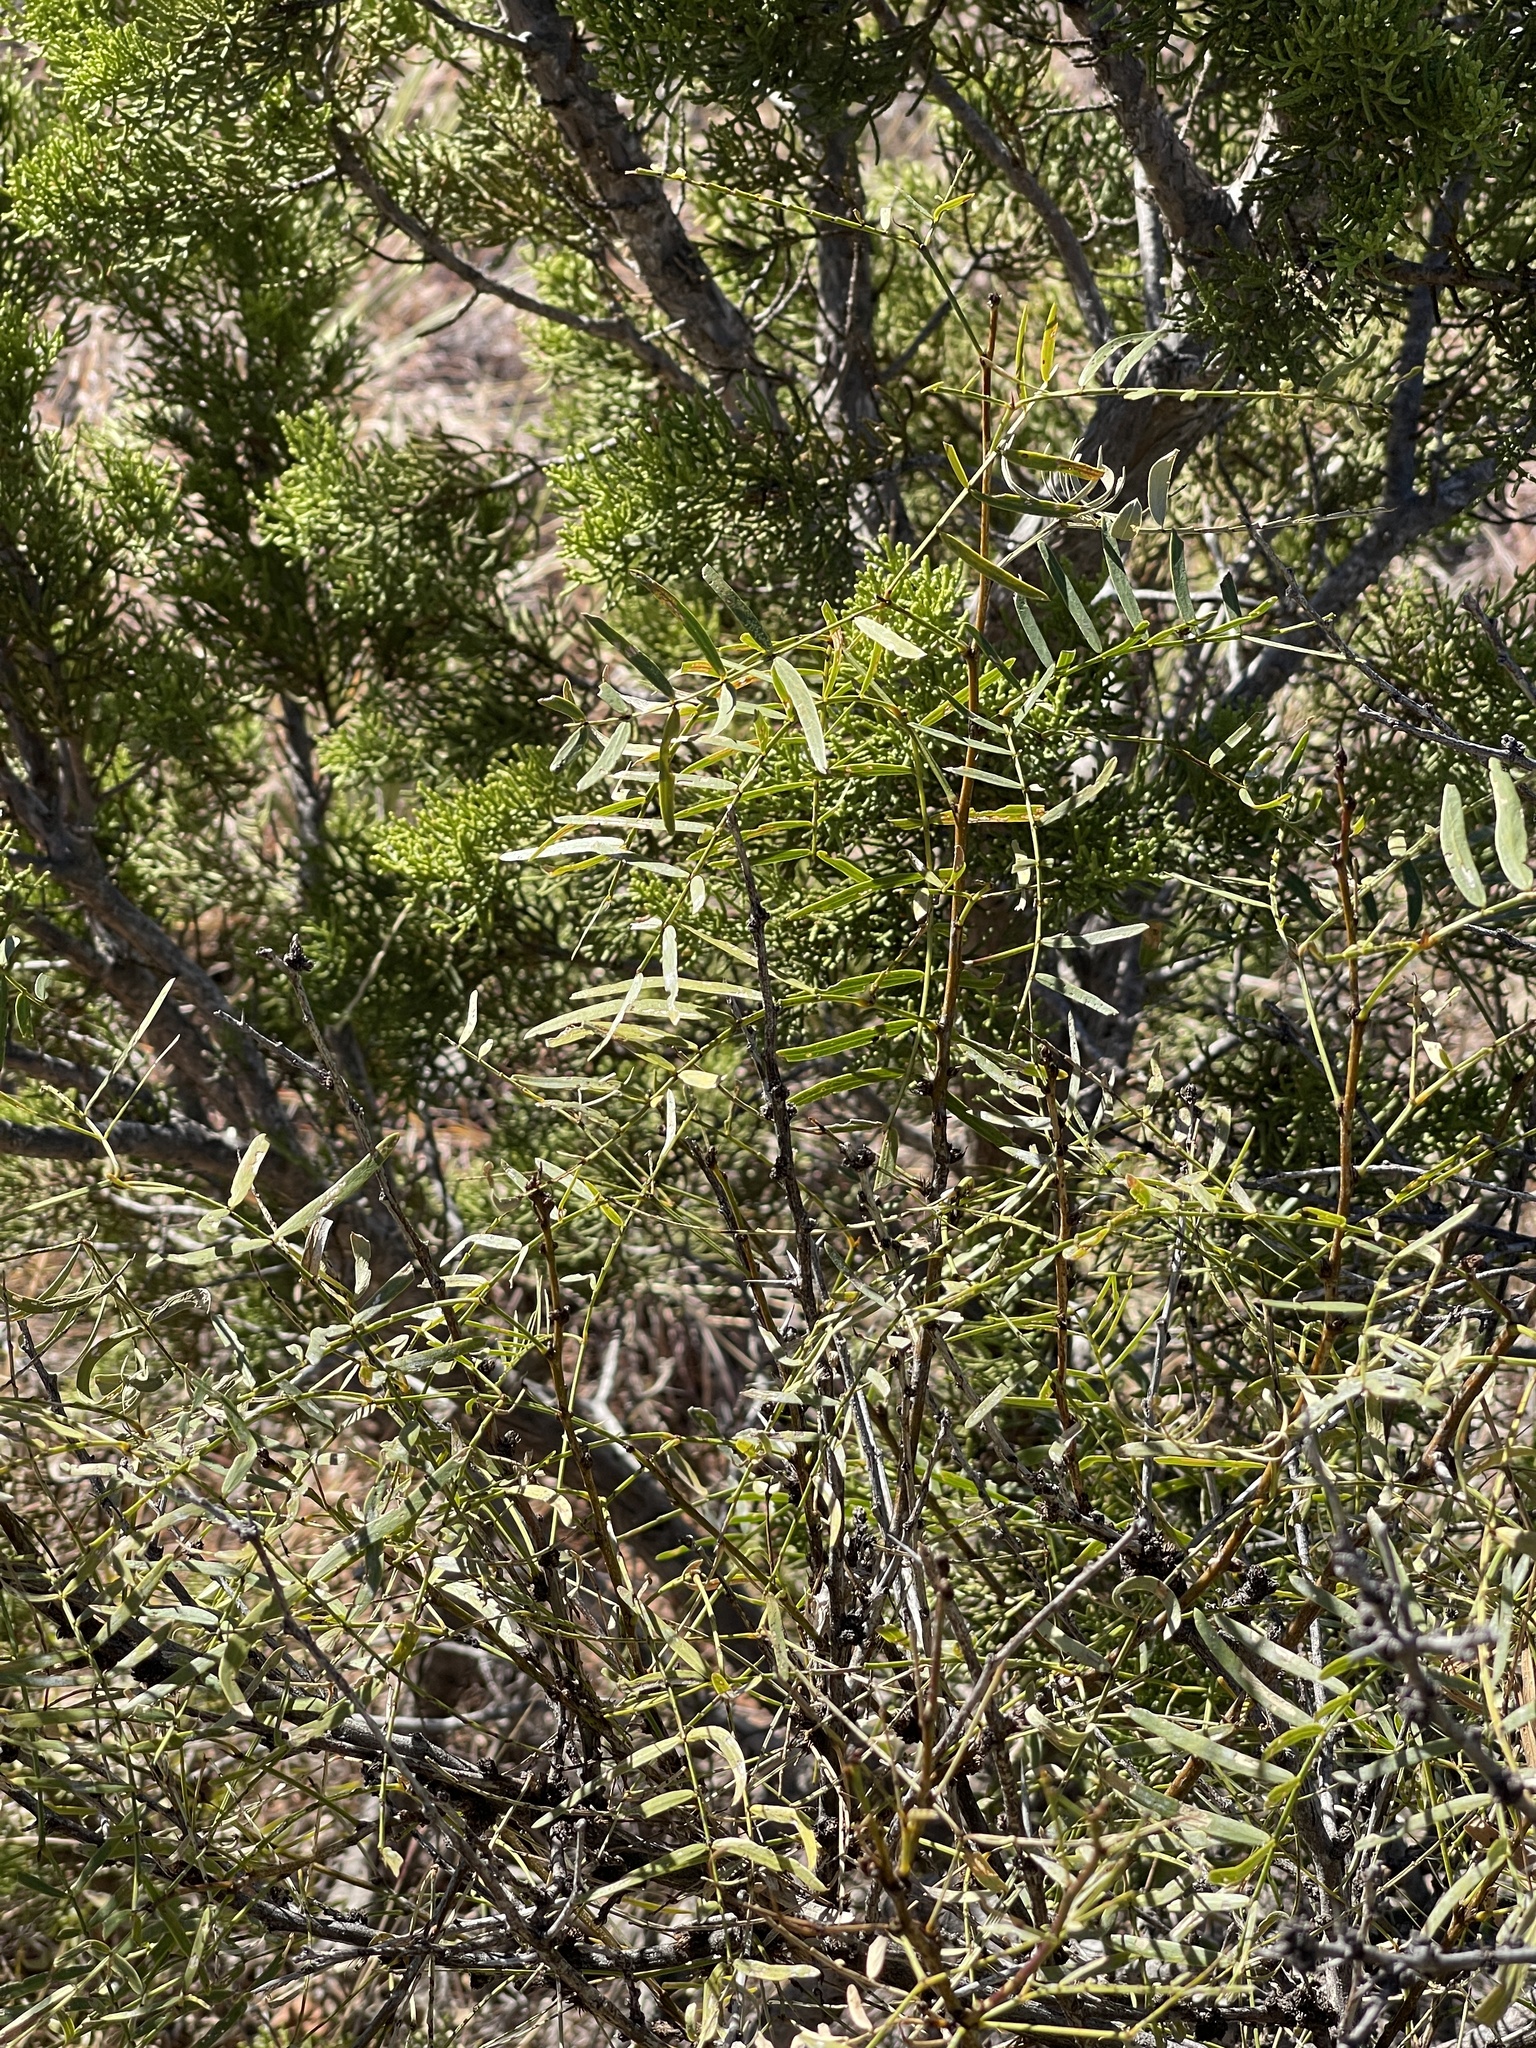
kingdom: Plantae
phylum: Tracheophyta
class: Magnoliopsida
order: Fabales
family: Fabaceae
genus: Prosopis
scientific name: Prosopis glandulosa
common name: Honey mesquite
